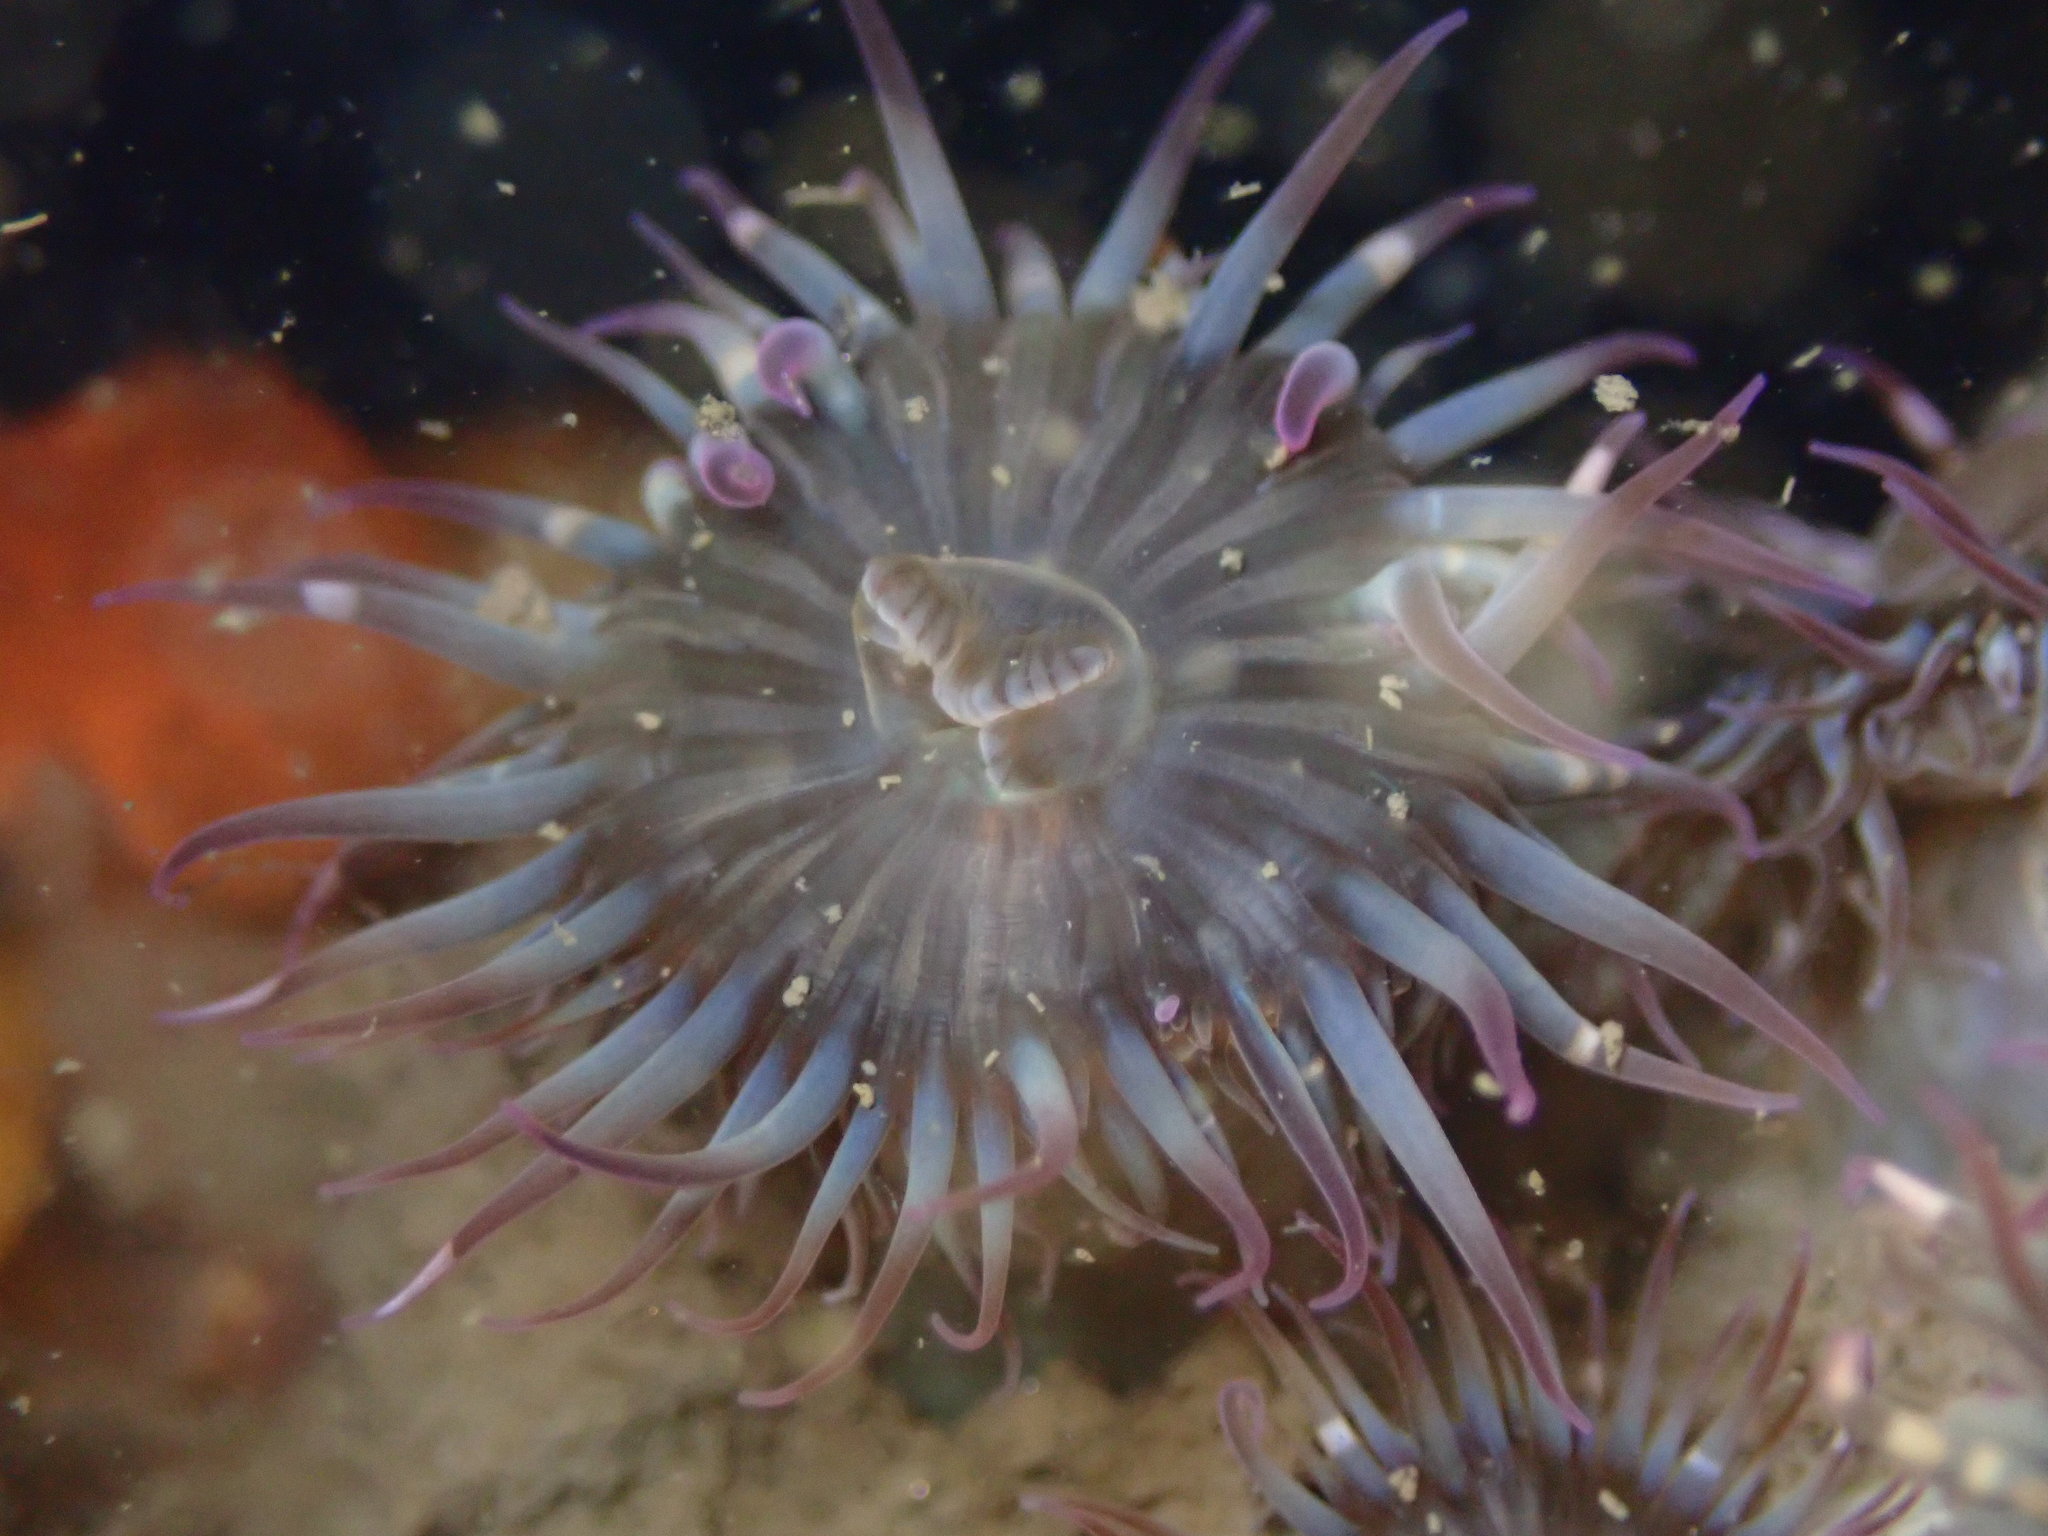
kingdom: Animalia
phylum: Cnidaria
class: Anthozoa
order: Actiniaria
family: Actiniidae
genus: Anthopleura
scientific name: Anthopleura elegantissima
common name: Clonal anemone
